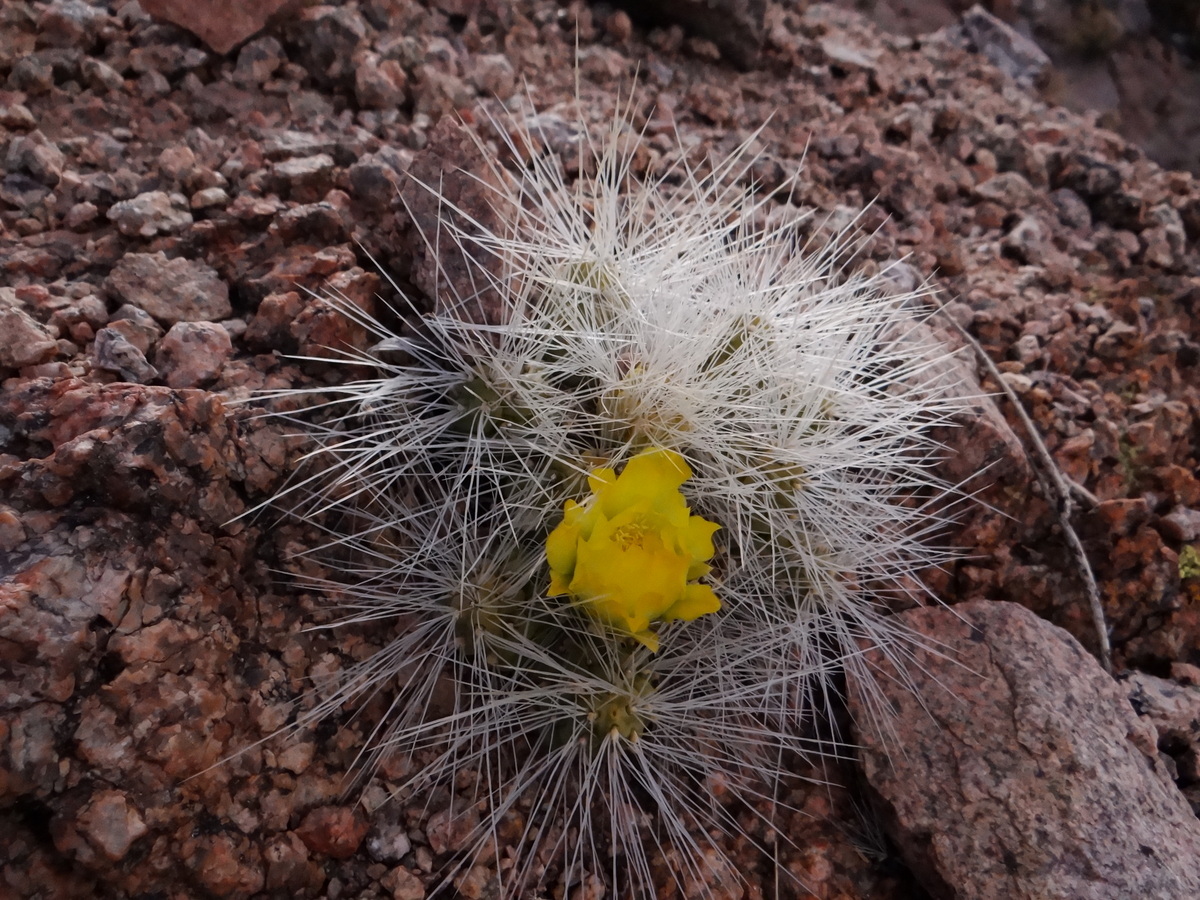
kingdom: Plantae
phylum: Tracheophyta
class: Magnoliopsida
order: Caryophyllales
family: Cactaceae
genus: Tephrocactus
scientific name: Tephrocactus weberi
